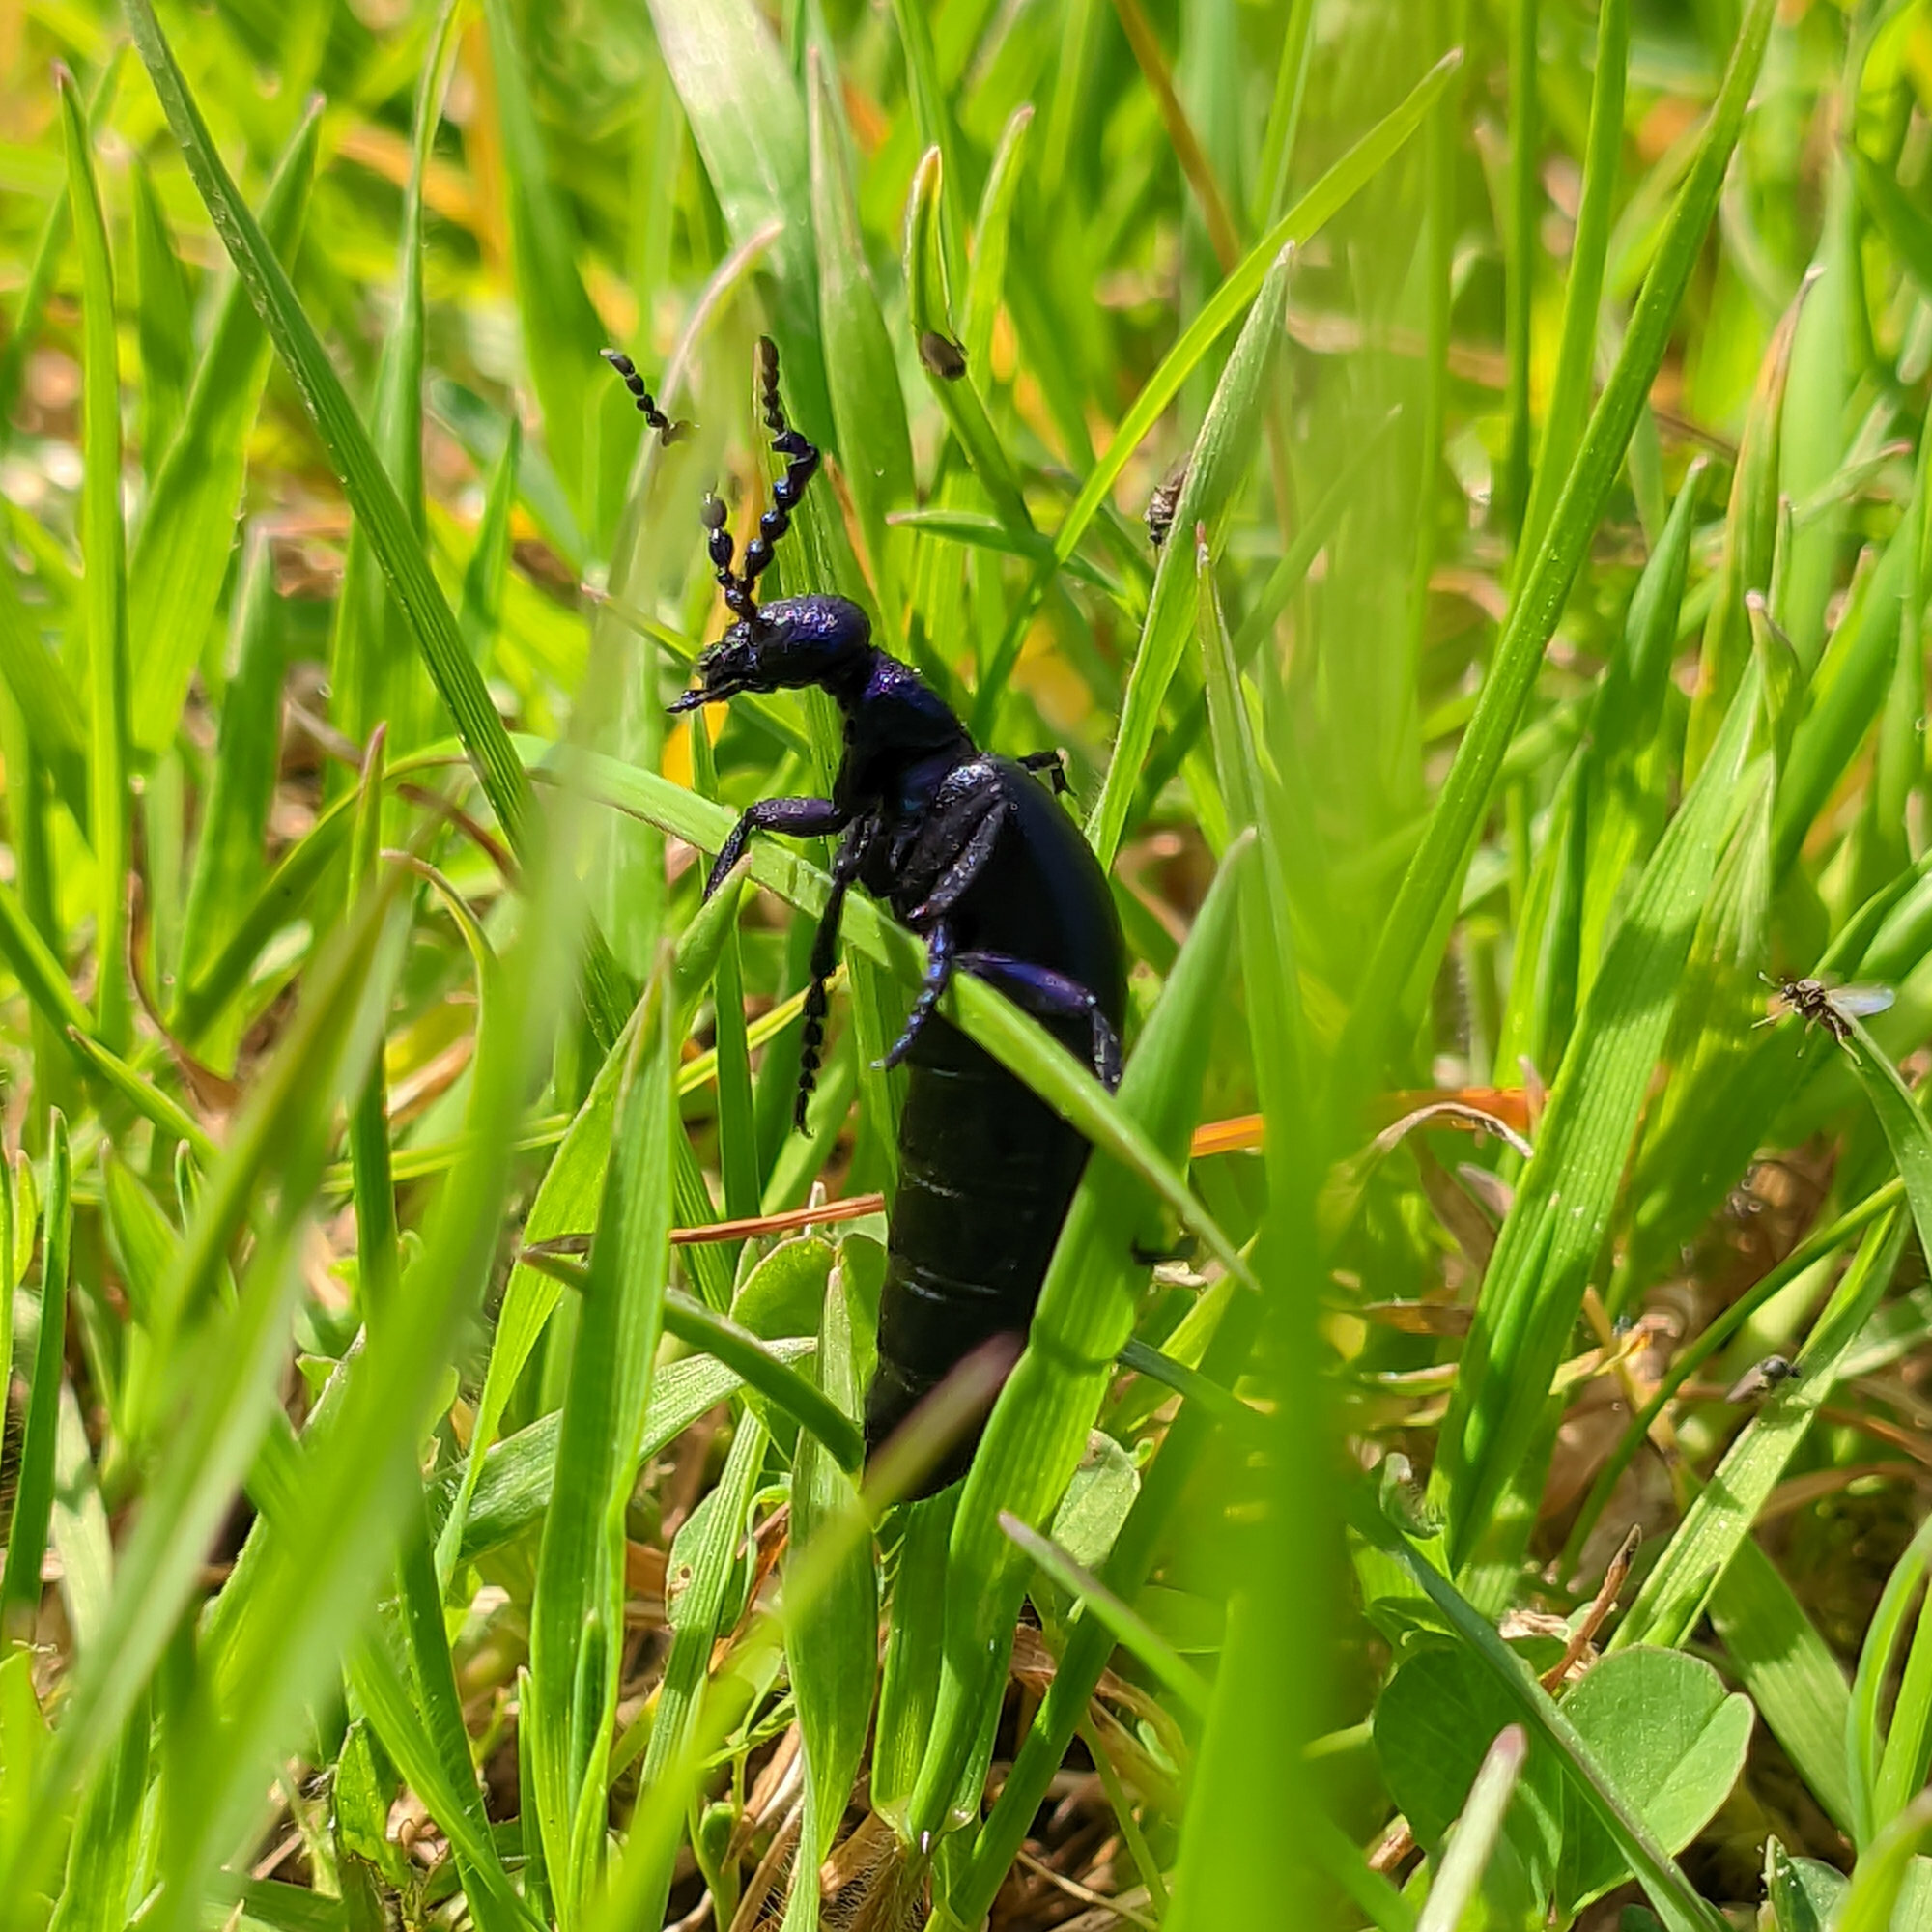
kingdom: Animalia
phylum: Arthropoda
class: Insecta
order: Coleoptera
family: Meloidae
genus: Meloe
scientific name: Meloe proscarabaeus
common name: Black oil-beetle
